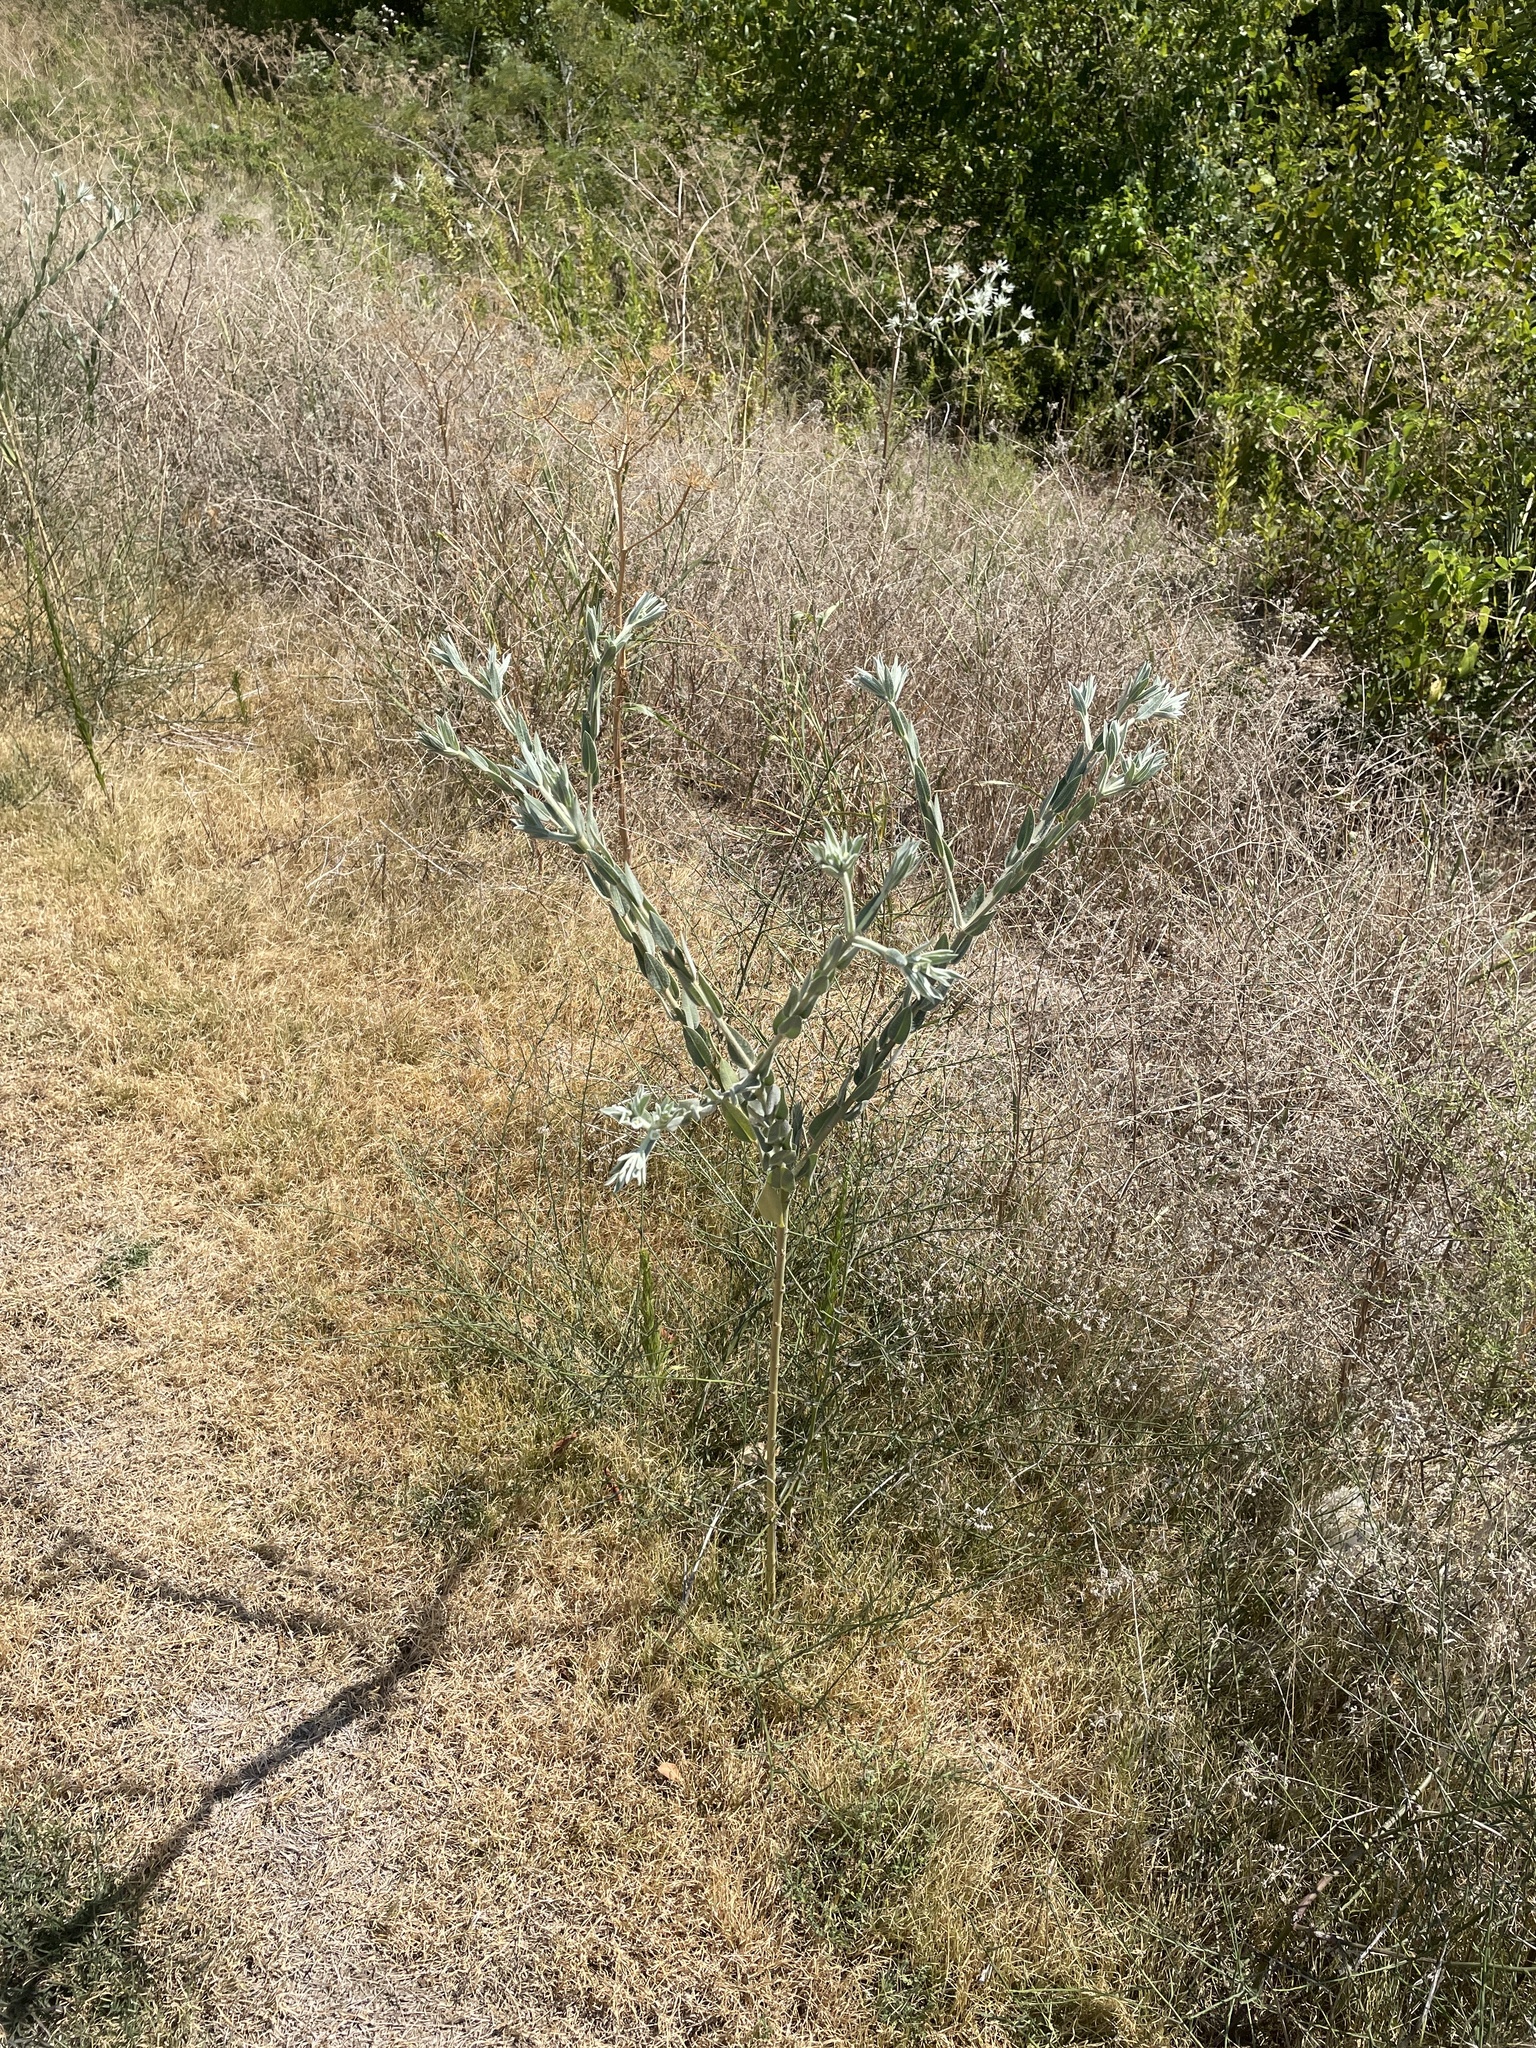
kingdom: Plantae
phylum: Tracheophyta
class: Magnoliopsida
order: Malpighiales
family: Euphorbiaceae
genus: Euphorbia
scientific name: Euphorbia bicolor
